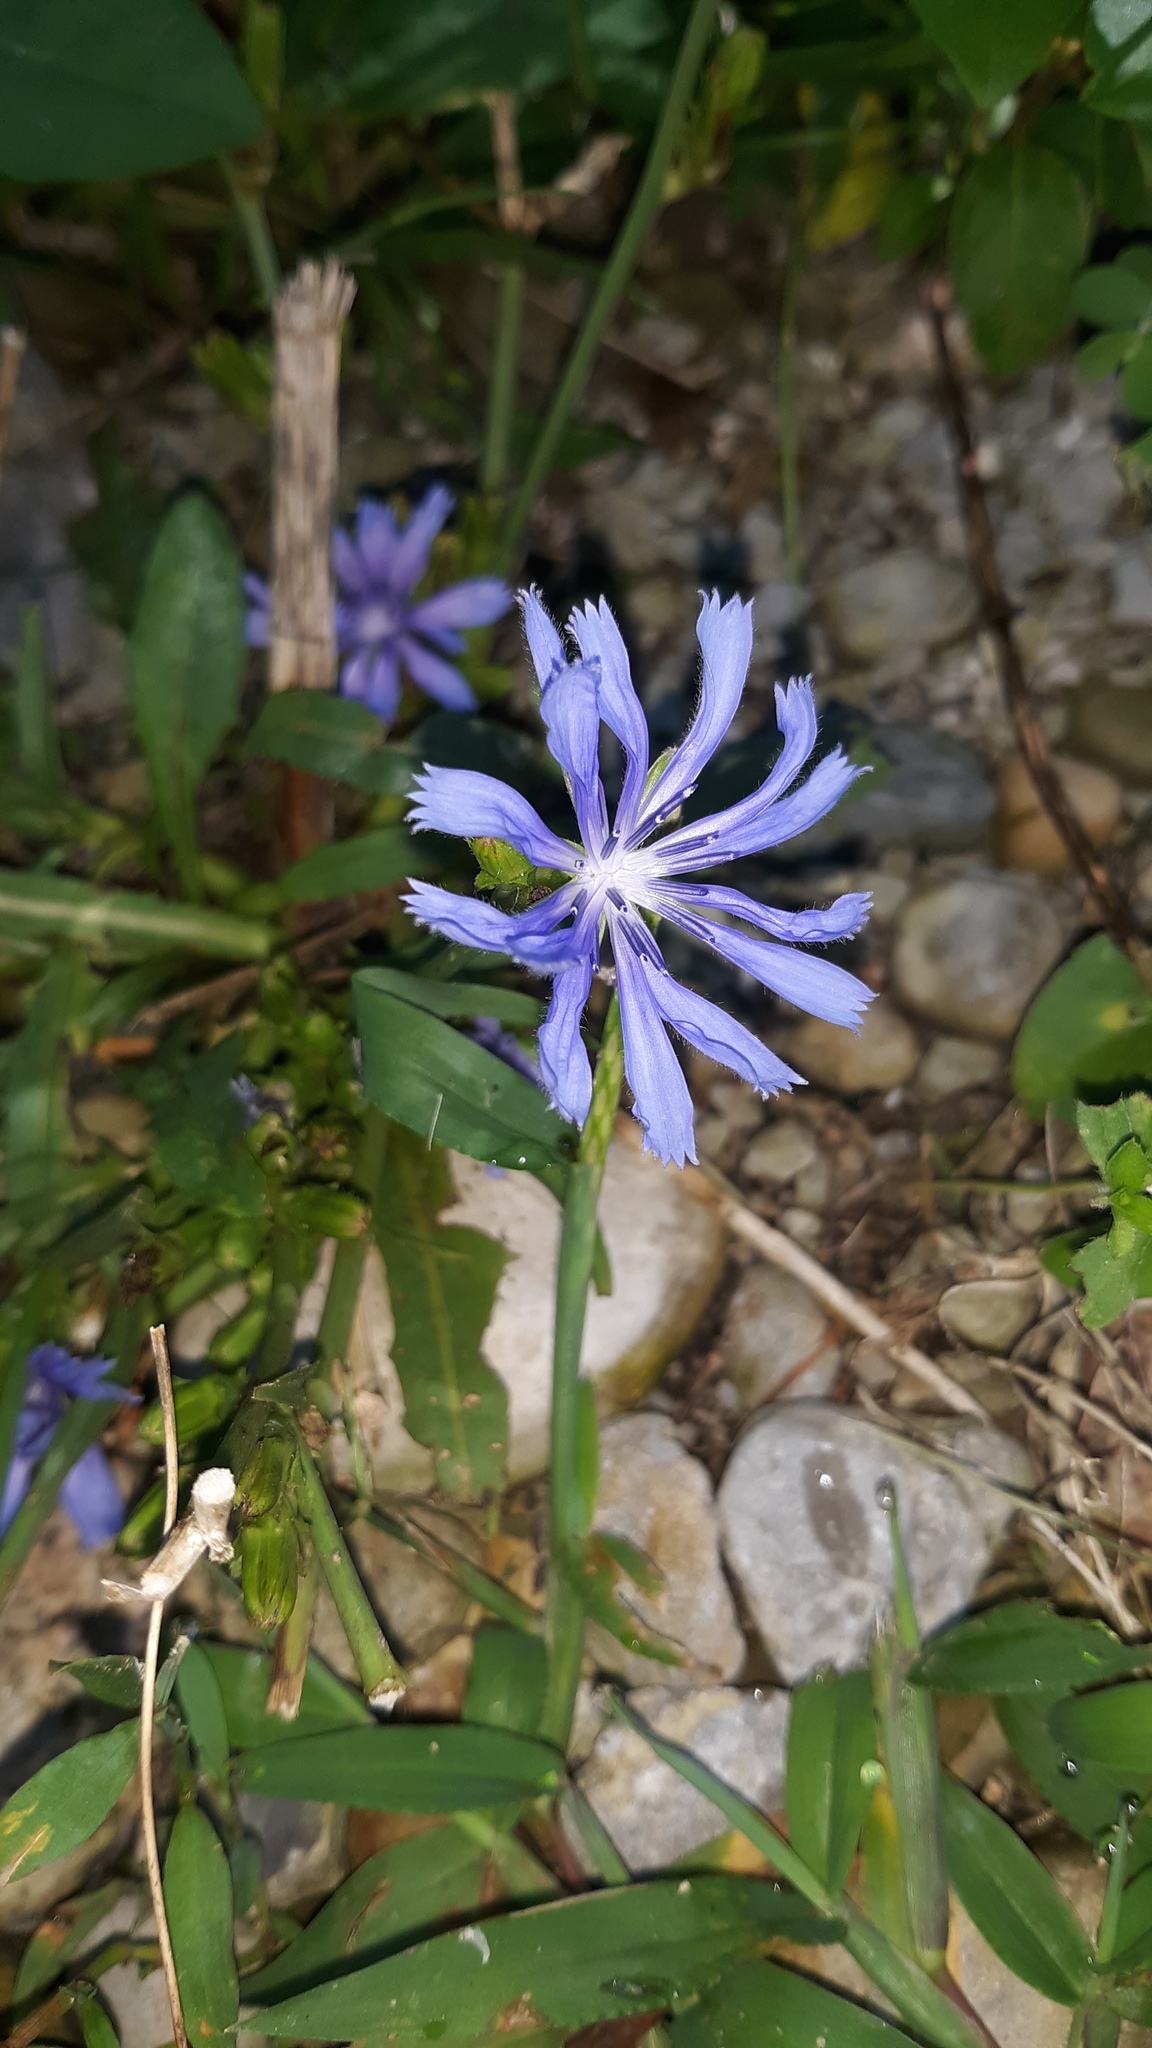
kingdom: Plantae
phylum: Tracheophyta
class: Magnoliopsida
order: Asterales
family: Asteraceae
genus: Cichorium
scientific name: Cichorium intybus
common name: Chicory
